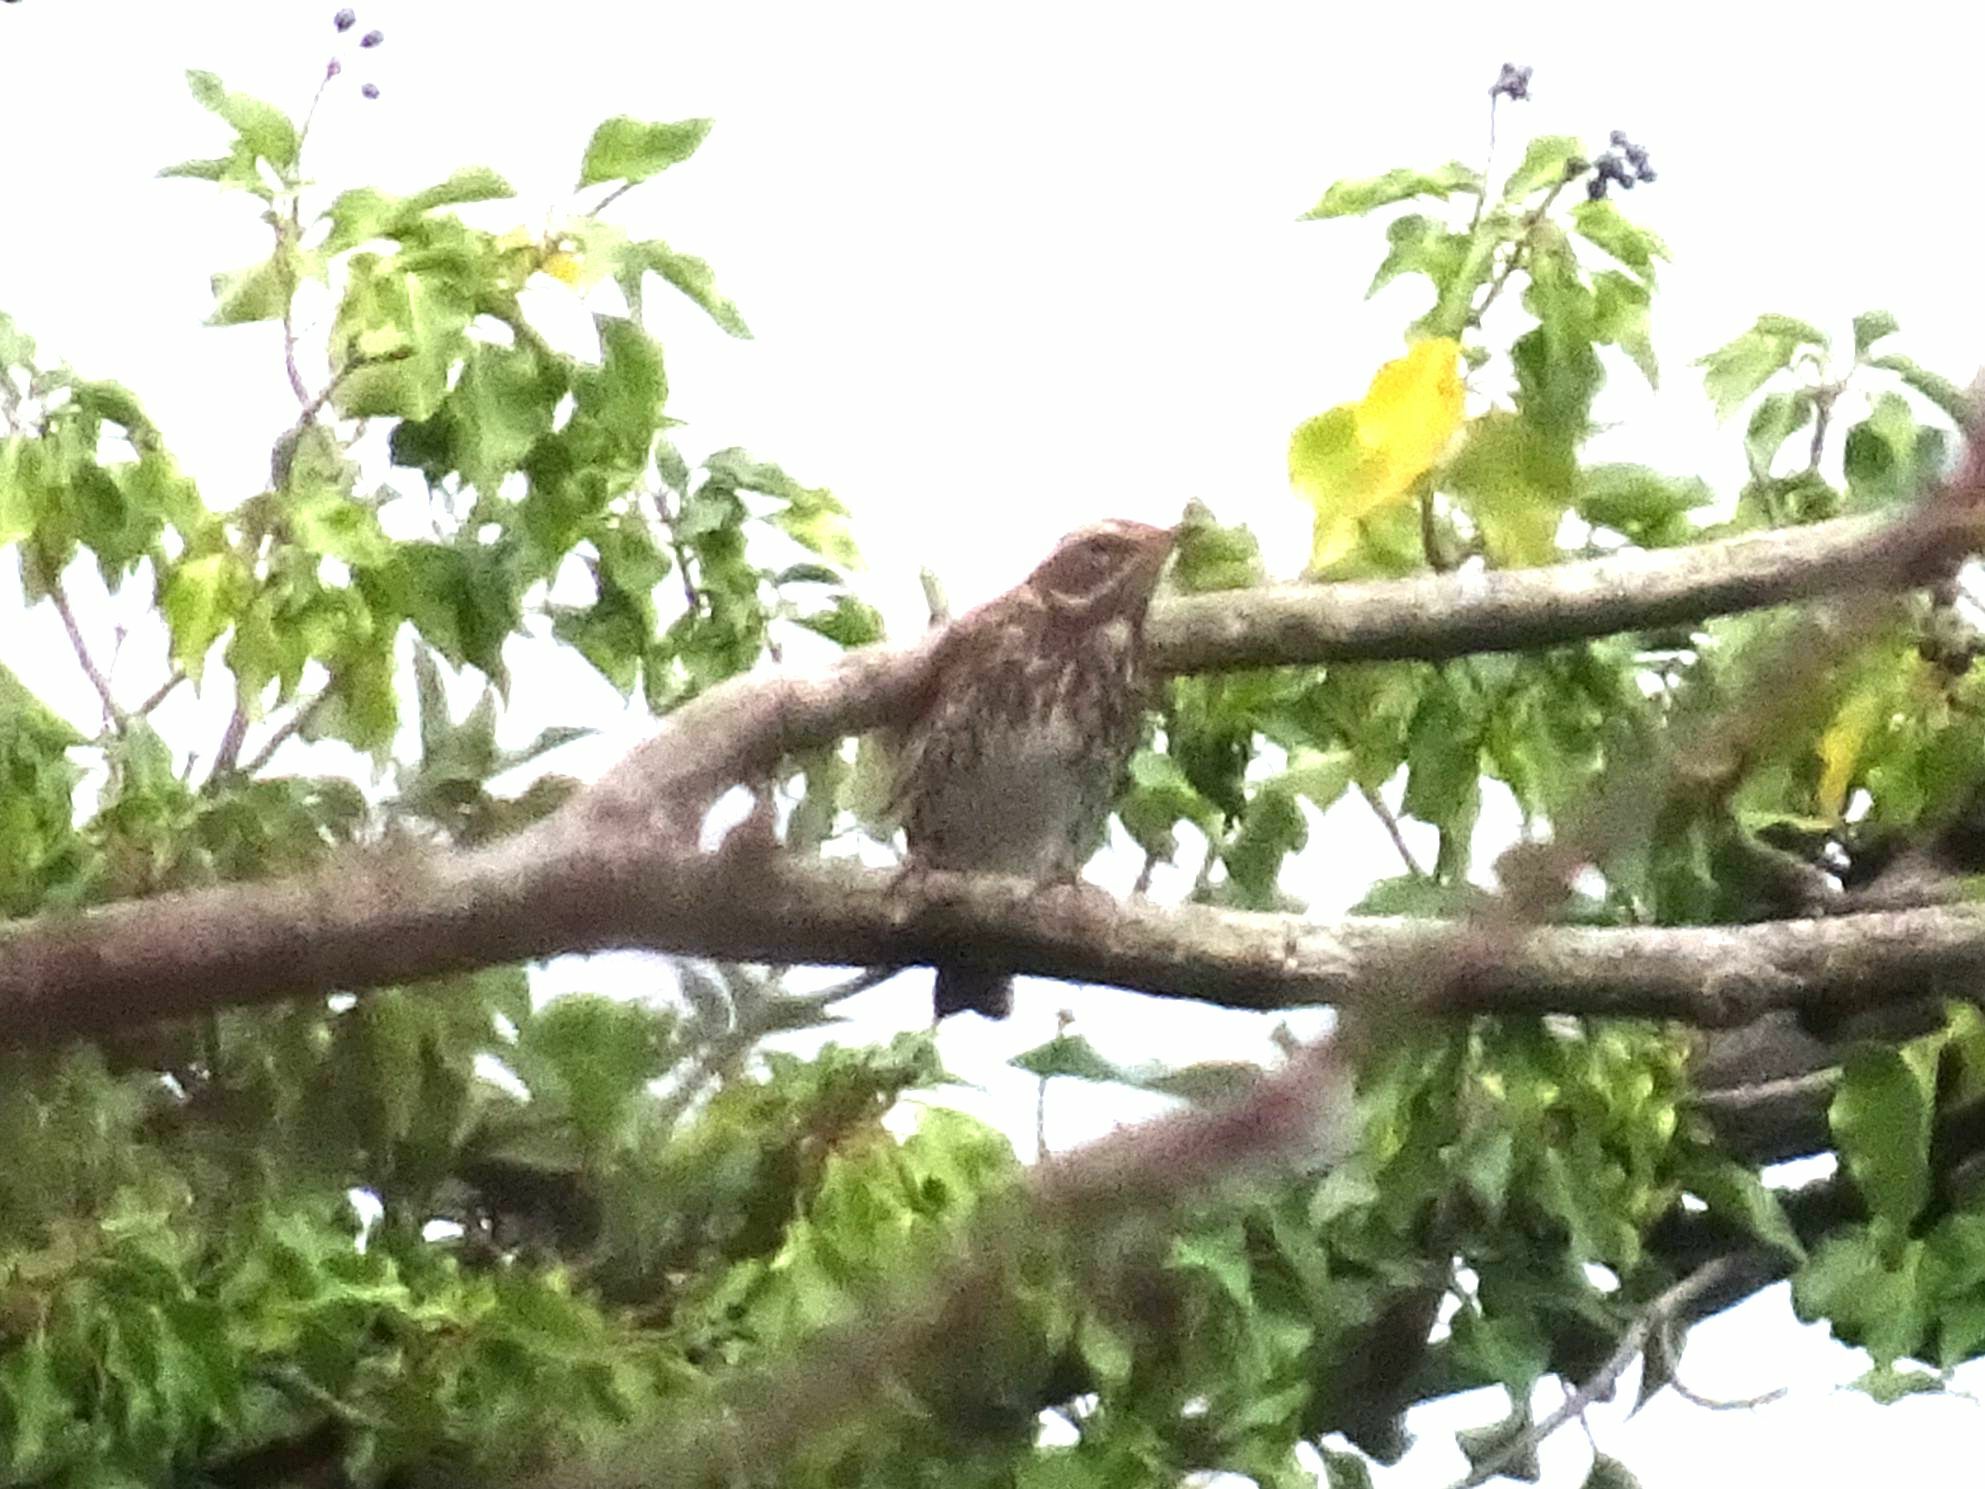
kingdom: Animalia
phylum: Chordata
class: Aves
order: Passeriformes
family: Turdidae
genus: Turdus
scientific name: Turdus iliacus
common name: Redwing
